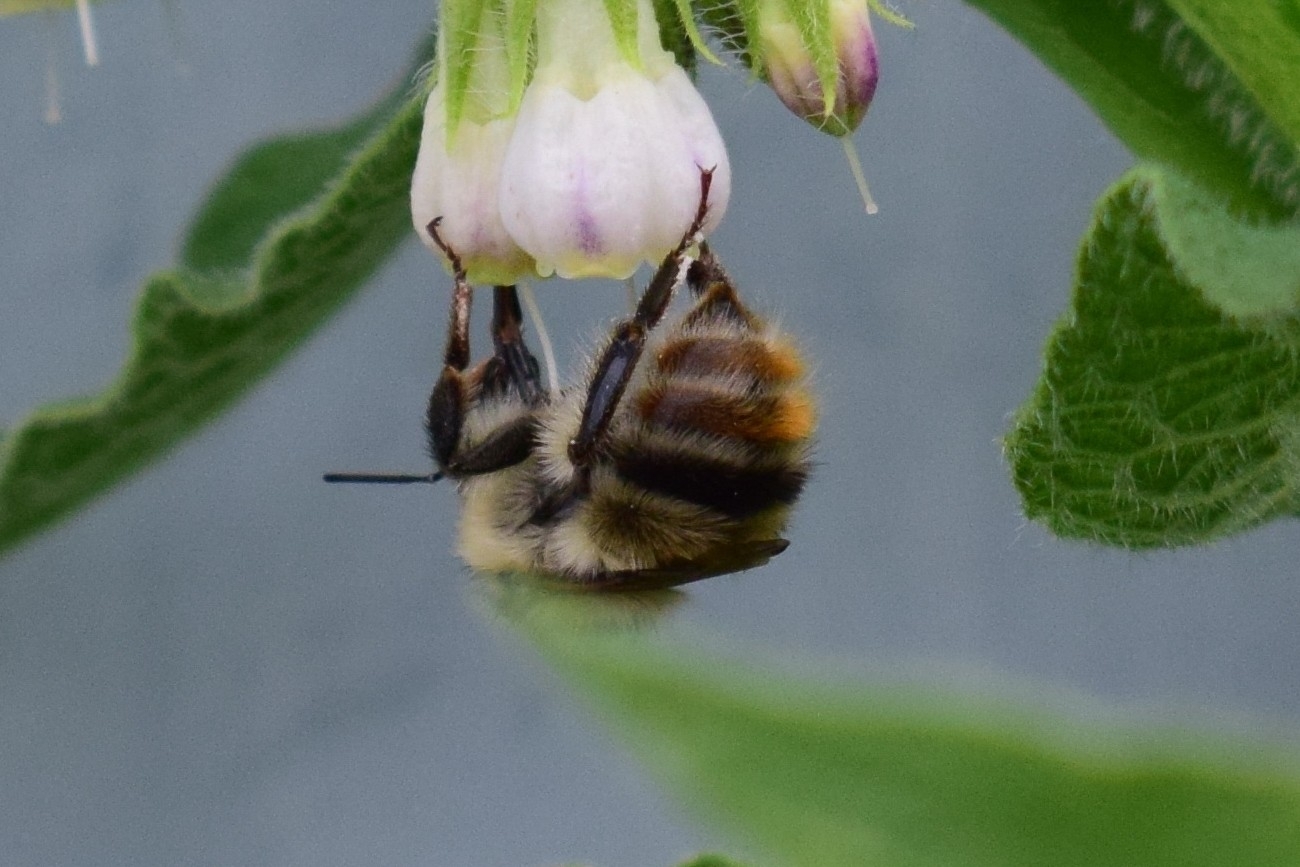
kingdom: Animalia
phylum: Arthropoda
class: Insecta
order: Hymenoptera
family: Apidae
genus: Bombus
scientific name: Bombus sylvarum
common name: Shrill carder bee
